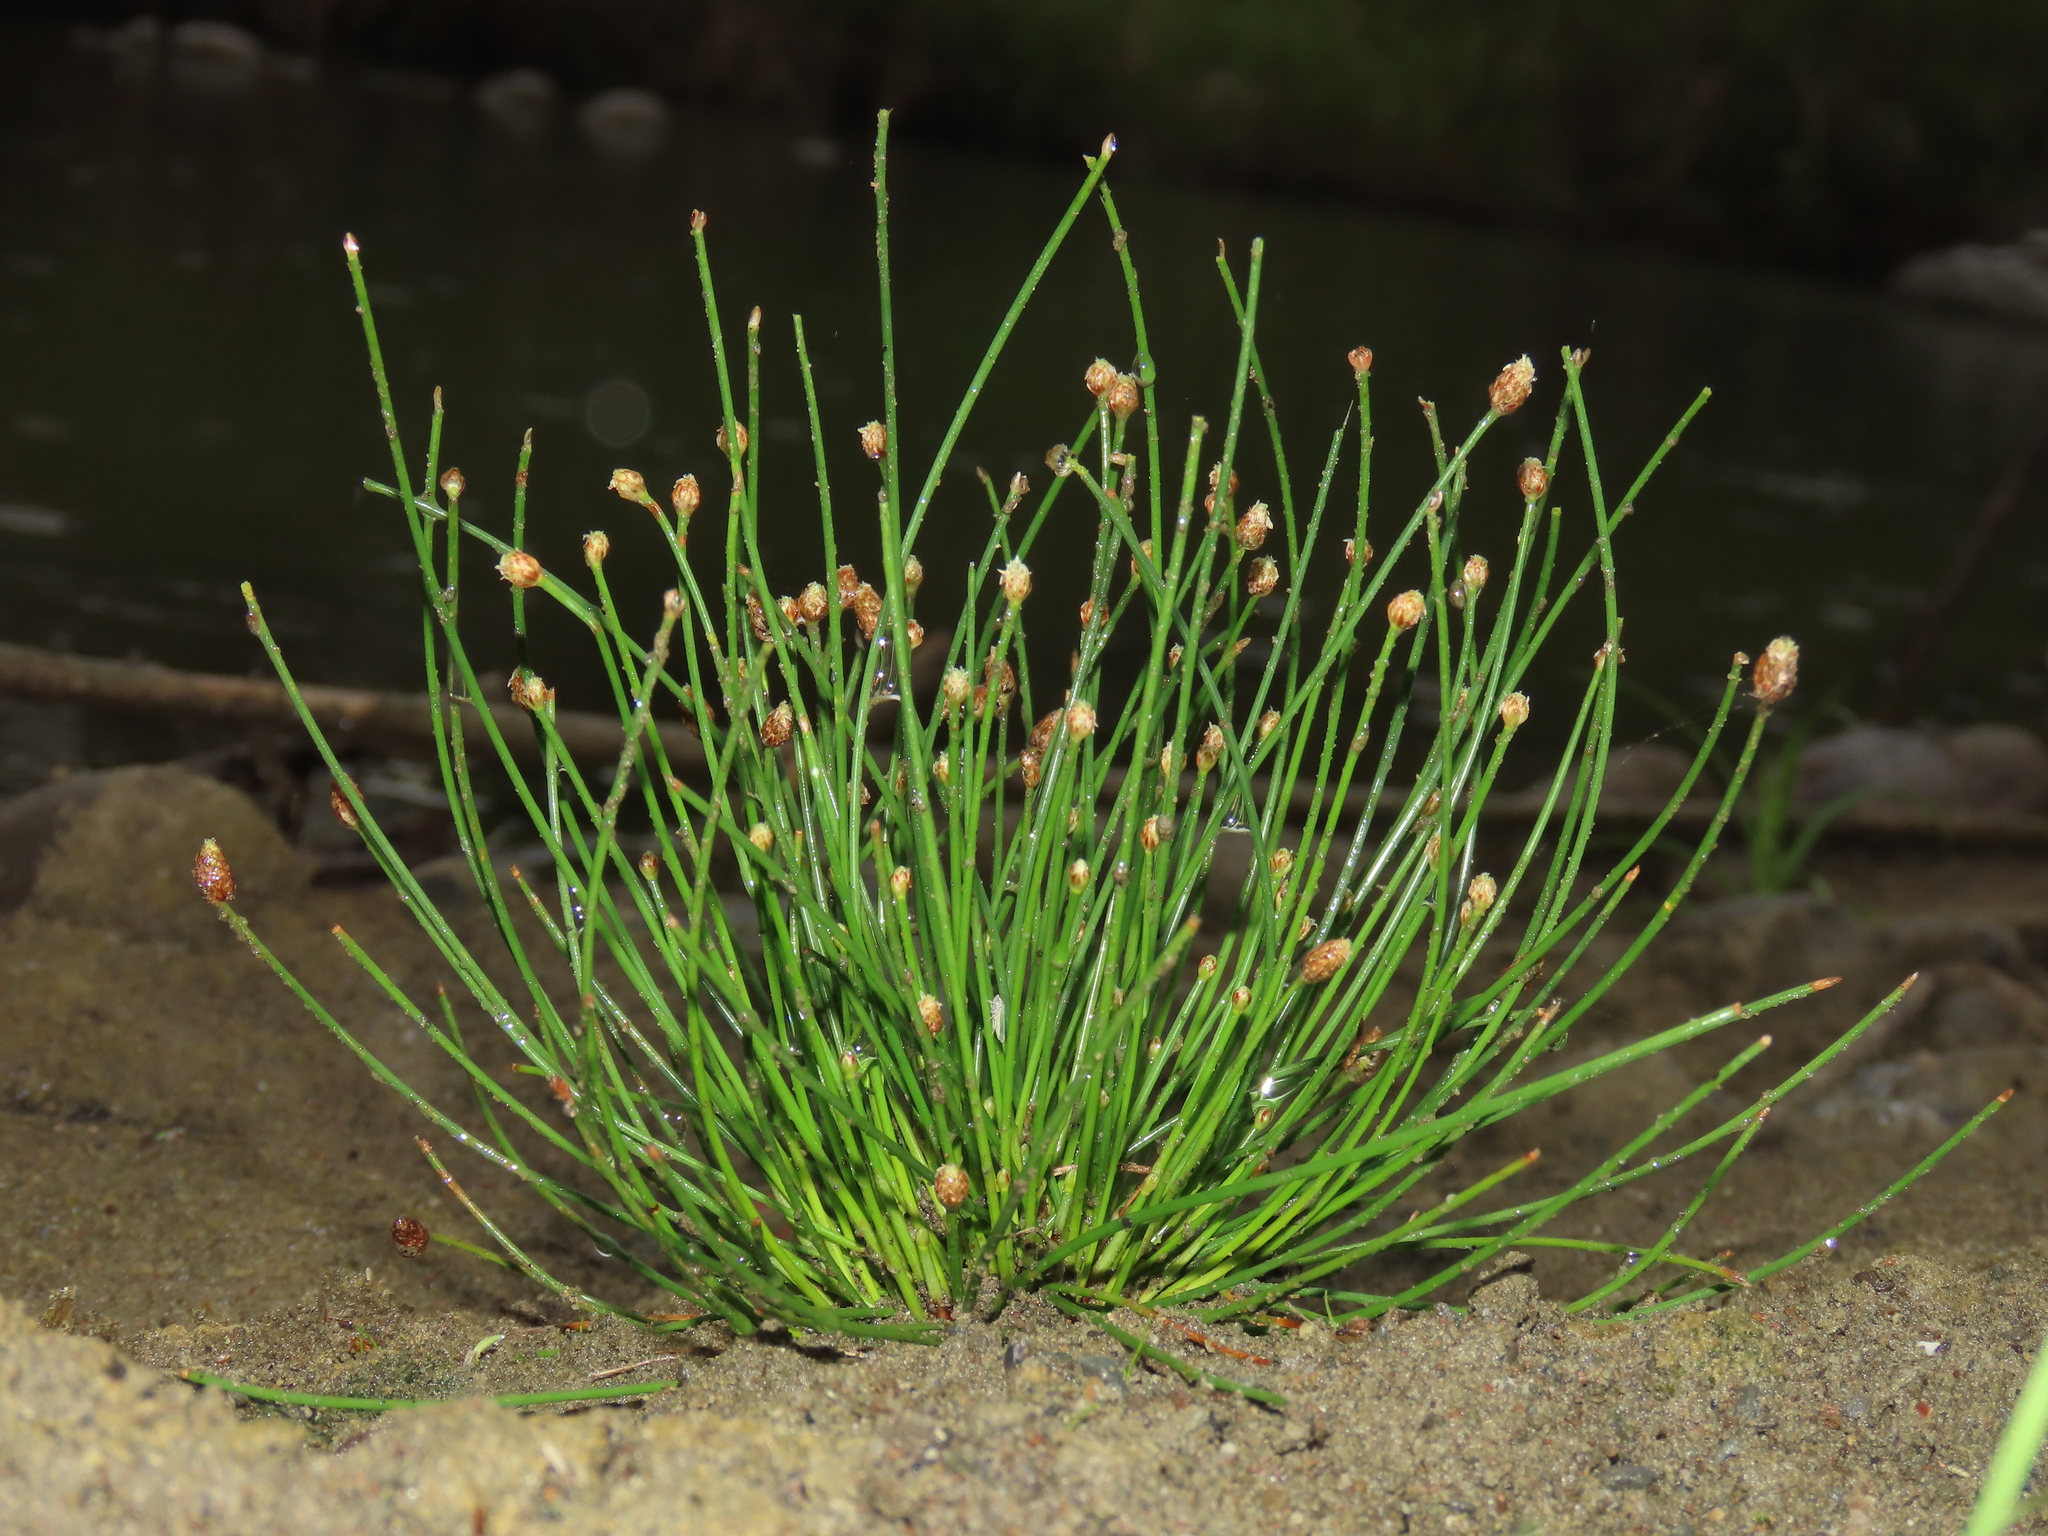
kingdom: Plantae
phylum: Tracheophyta
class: Liliopsida
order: Poales
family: Cyperaceae
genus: Eleocharis
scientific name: Eleocharis geniculata
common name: Canada spikesedge
